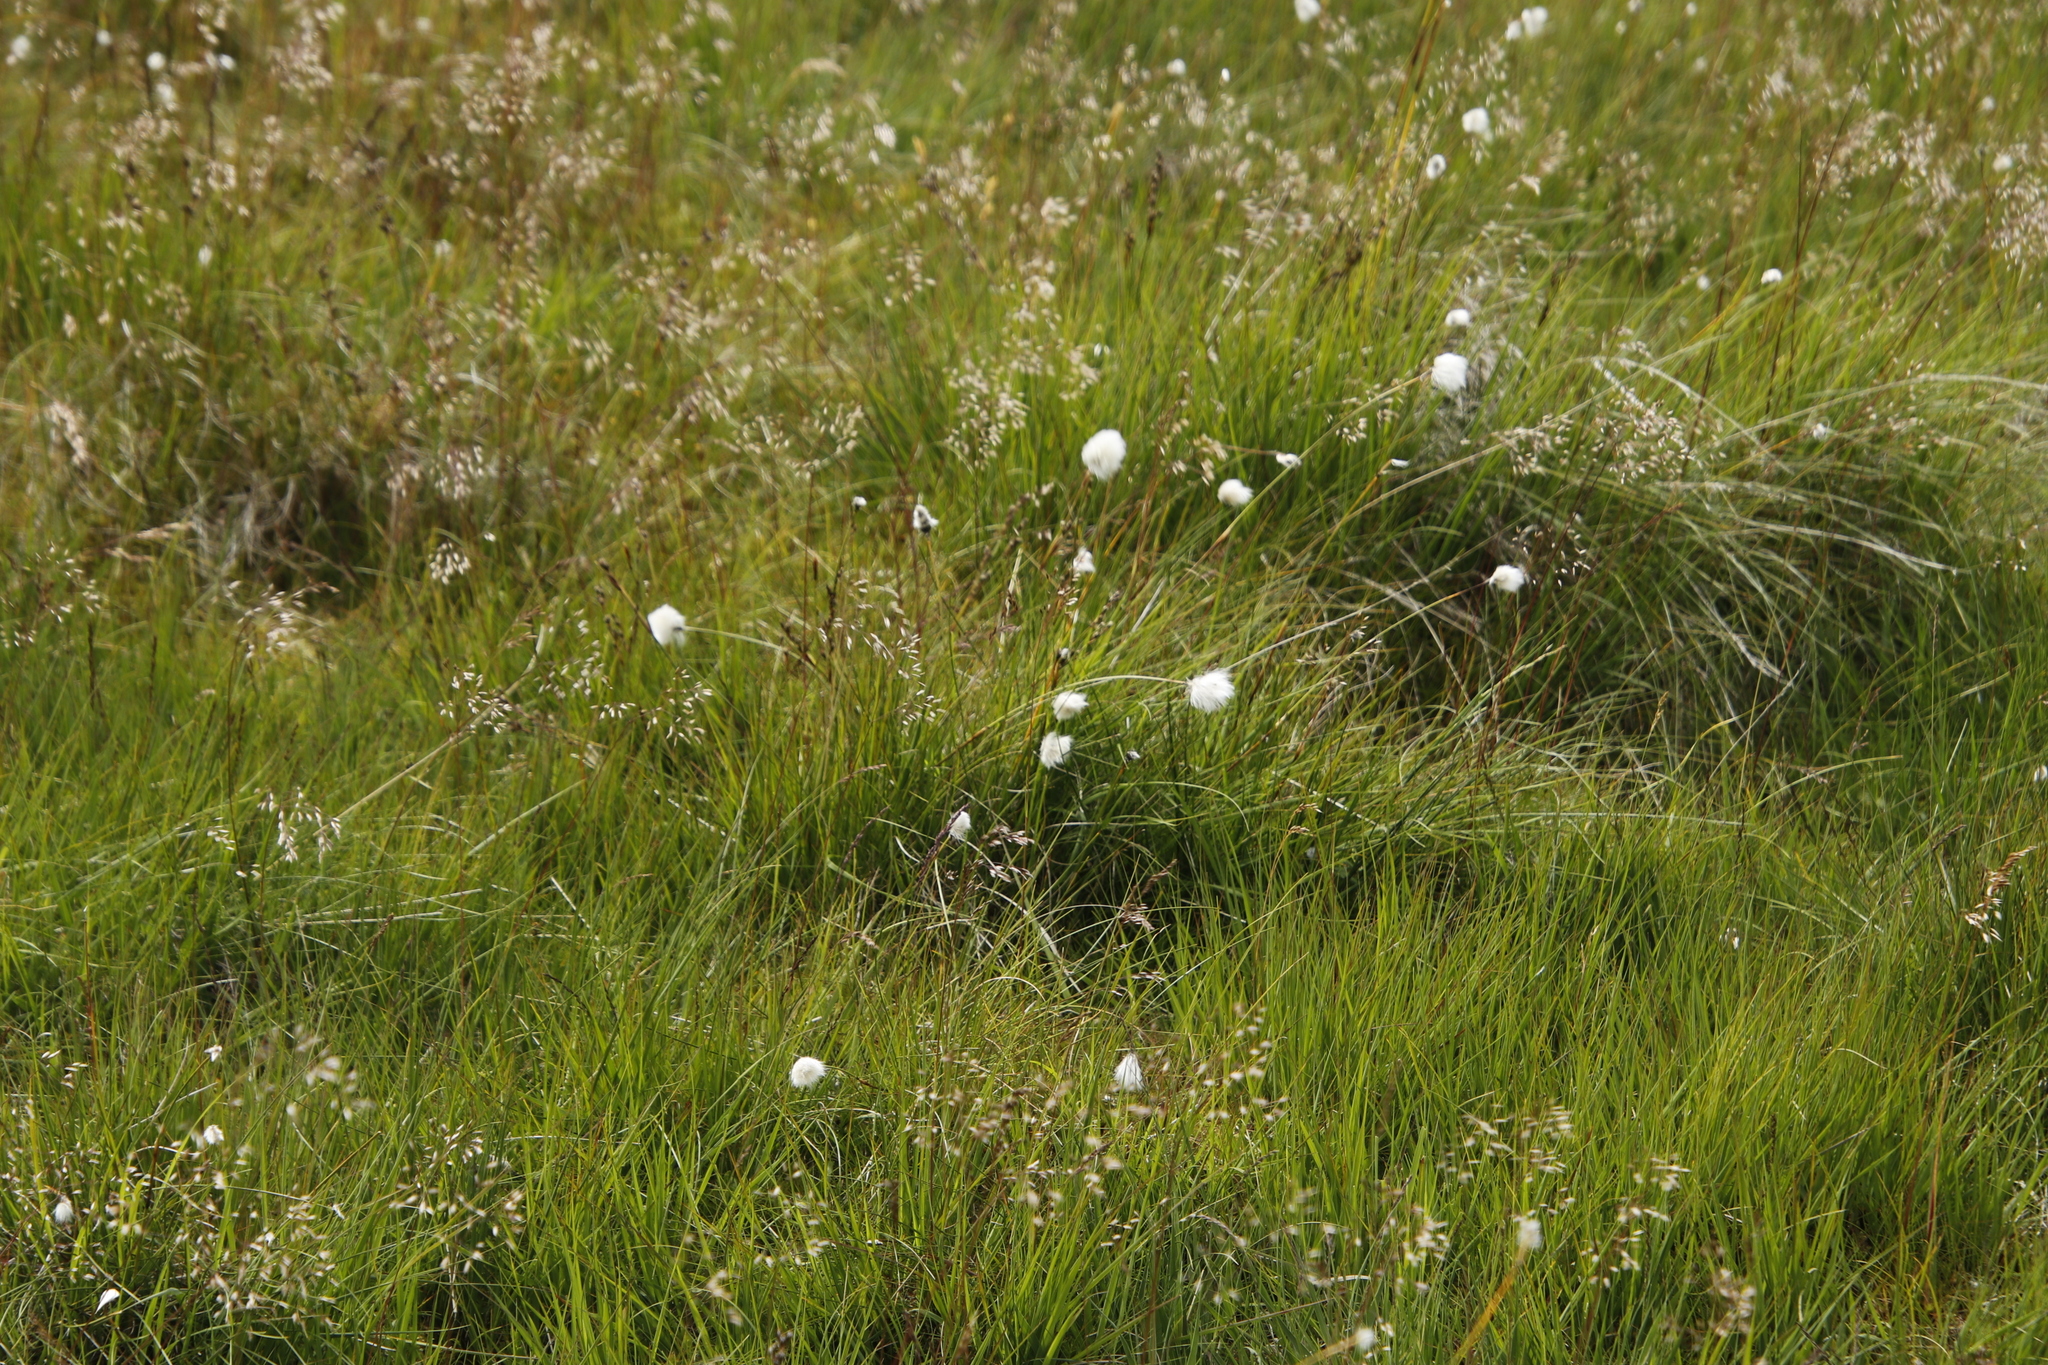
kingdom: Plantae
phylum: Tracheophyta
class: Liliopsida
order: Poales
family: Cyperaceae
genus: Eriophorum
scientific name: Eriophorum vaginatum
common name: Hare's-tail cottongrass
